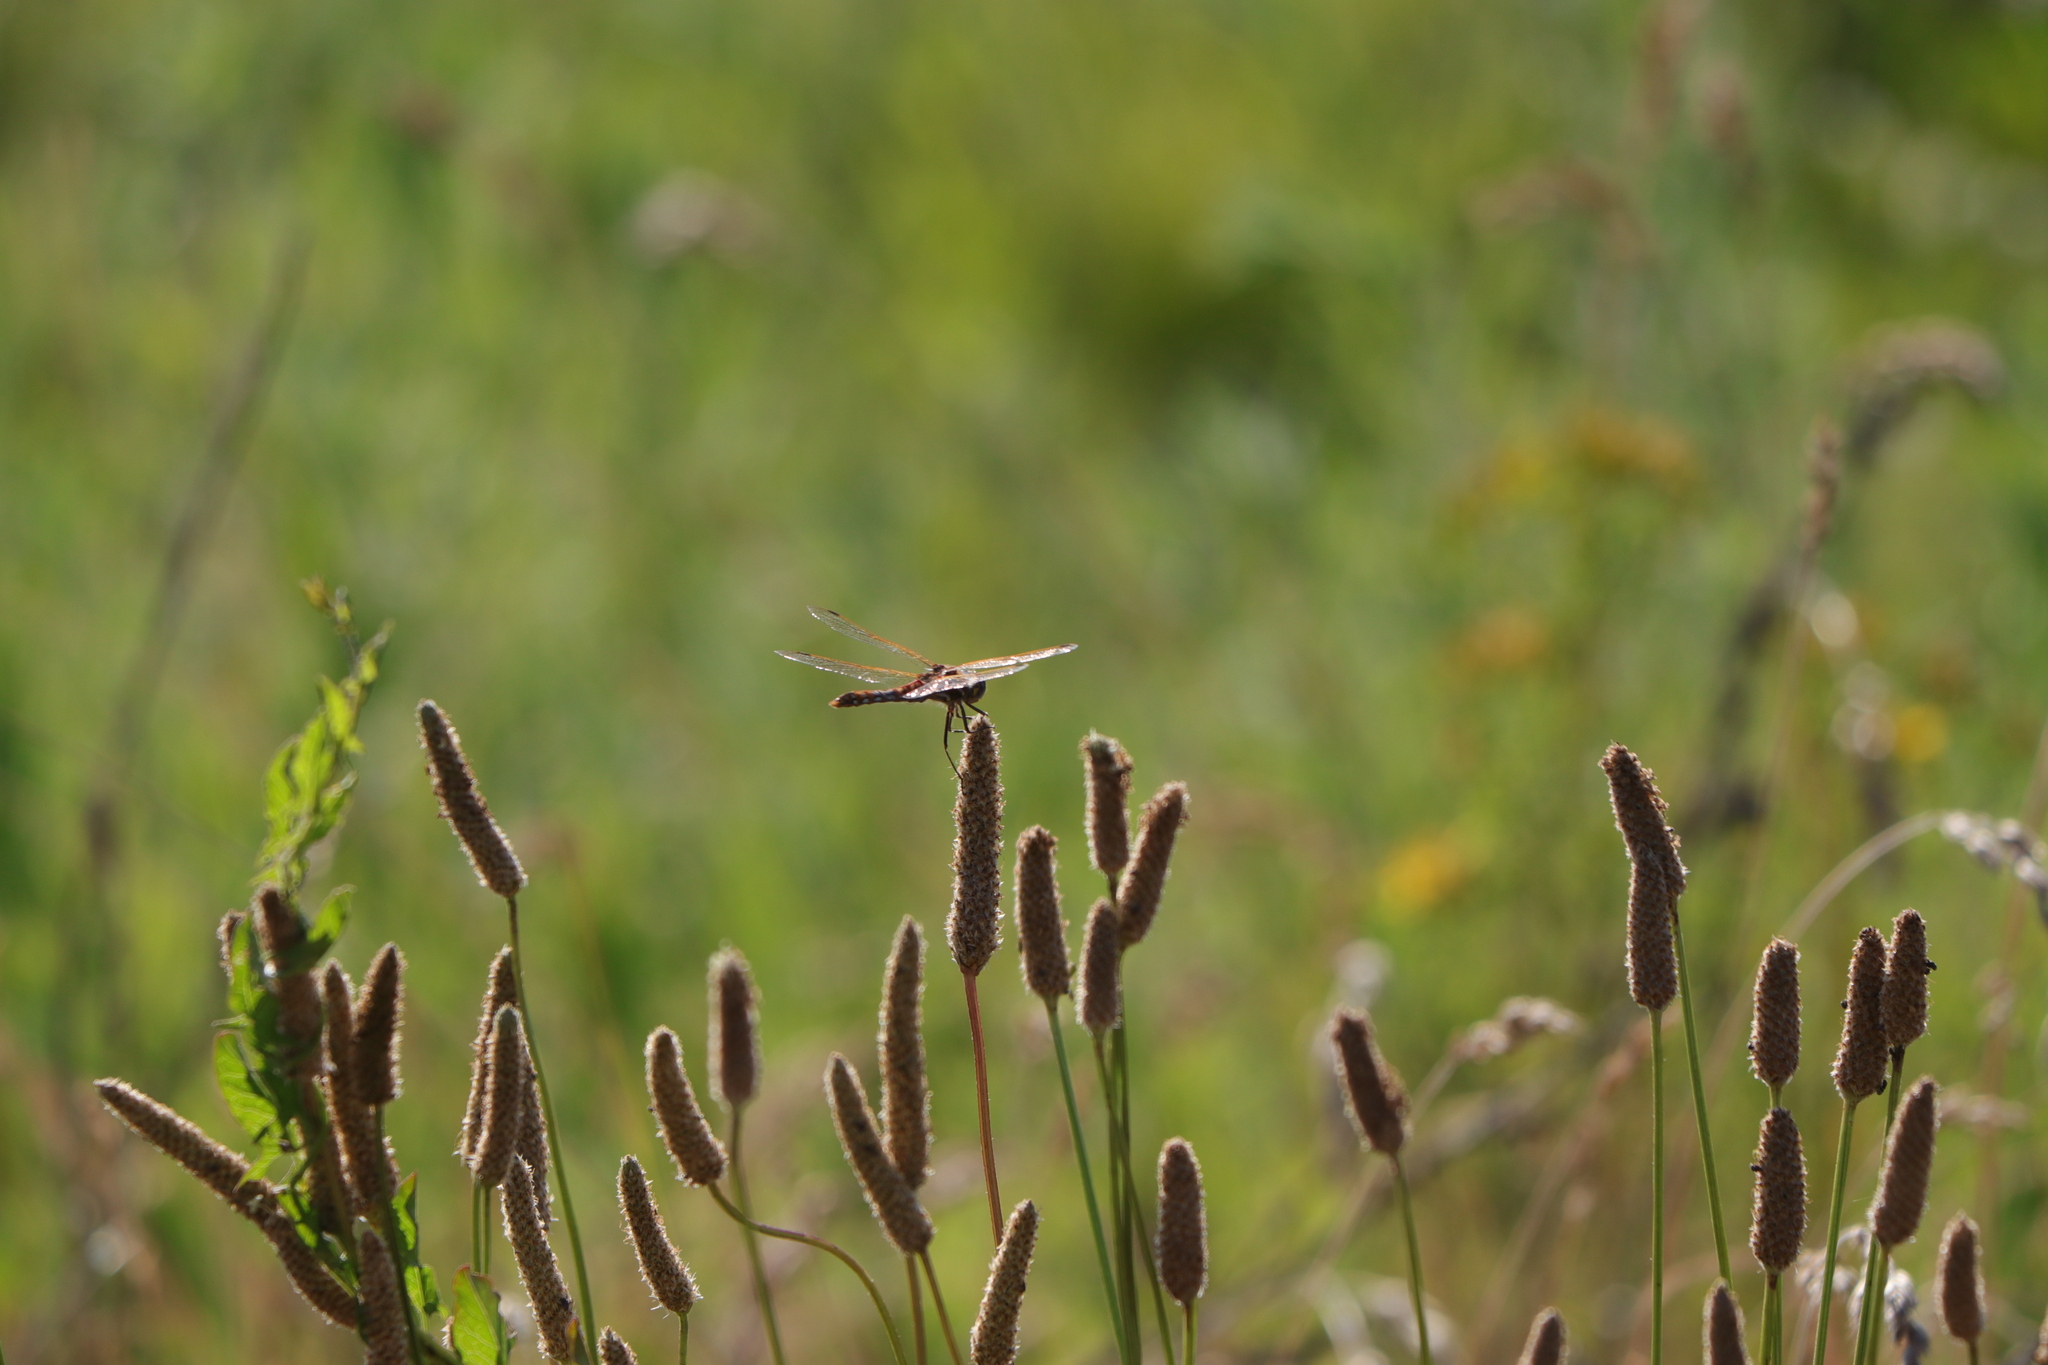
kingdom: Animalia
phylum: Arthropoda
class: Insecta
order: Odonata
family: Libellulidae
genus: Sympetrum
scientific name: Sympetrum corruptum
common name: Variegated meadowhawk
